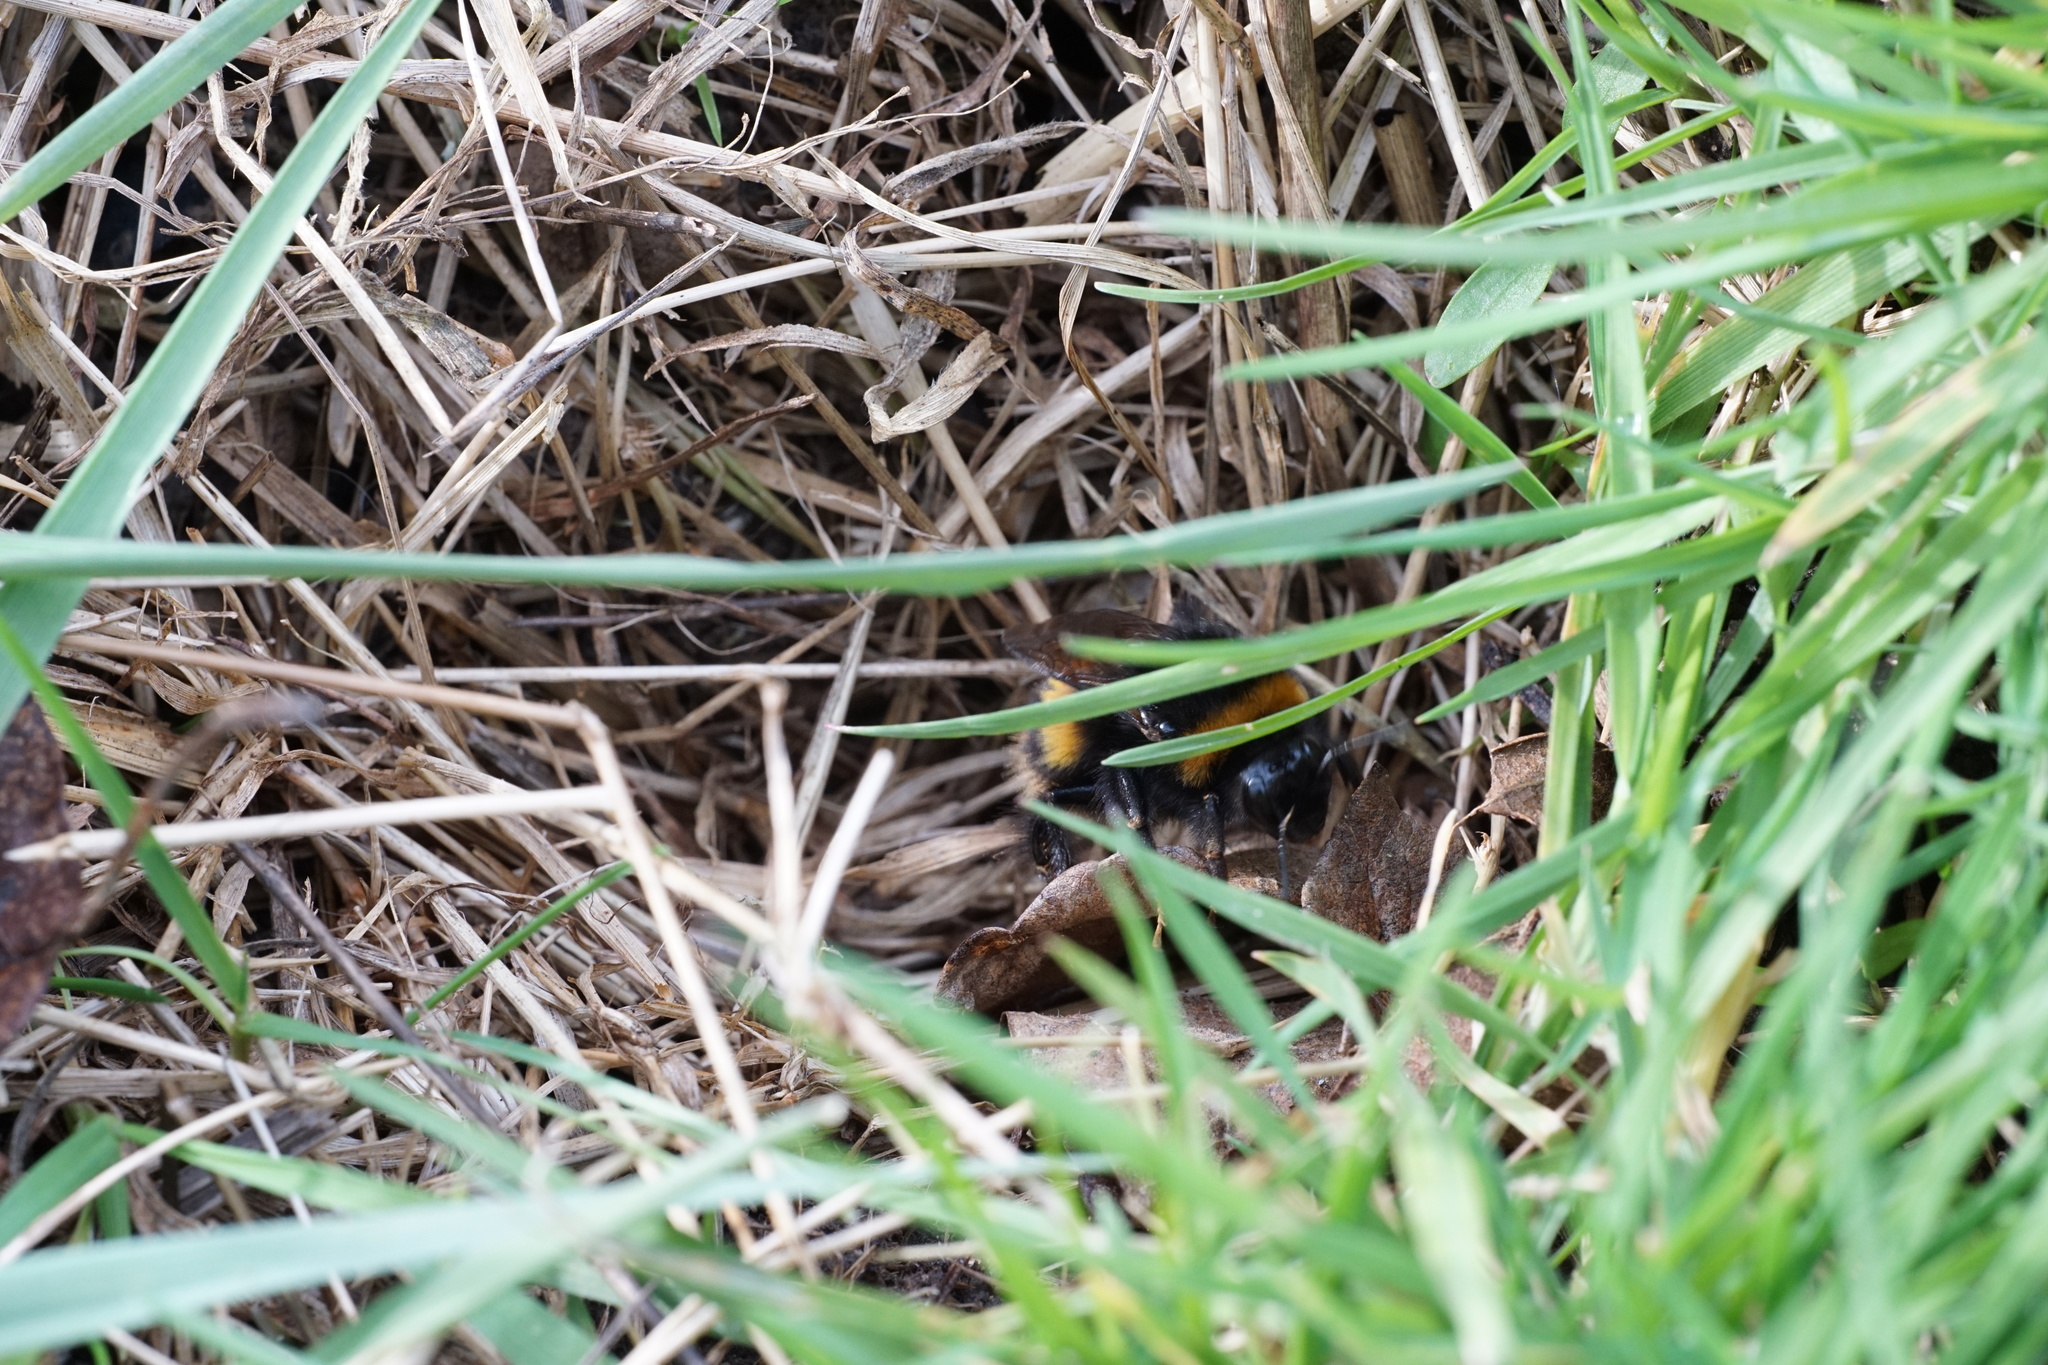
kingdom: Animalia
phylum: Arthropoda
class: Insecta
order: Hymenoptera
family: Apidae
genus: Bombus
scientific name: Bombus terrestris
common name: Buff-tailed bumblebee
